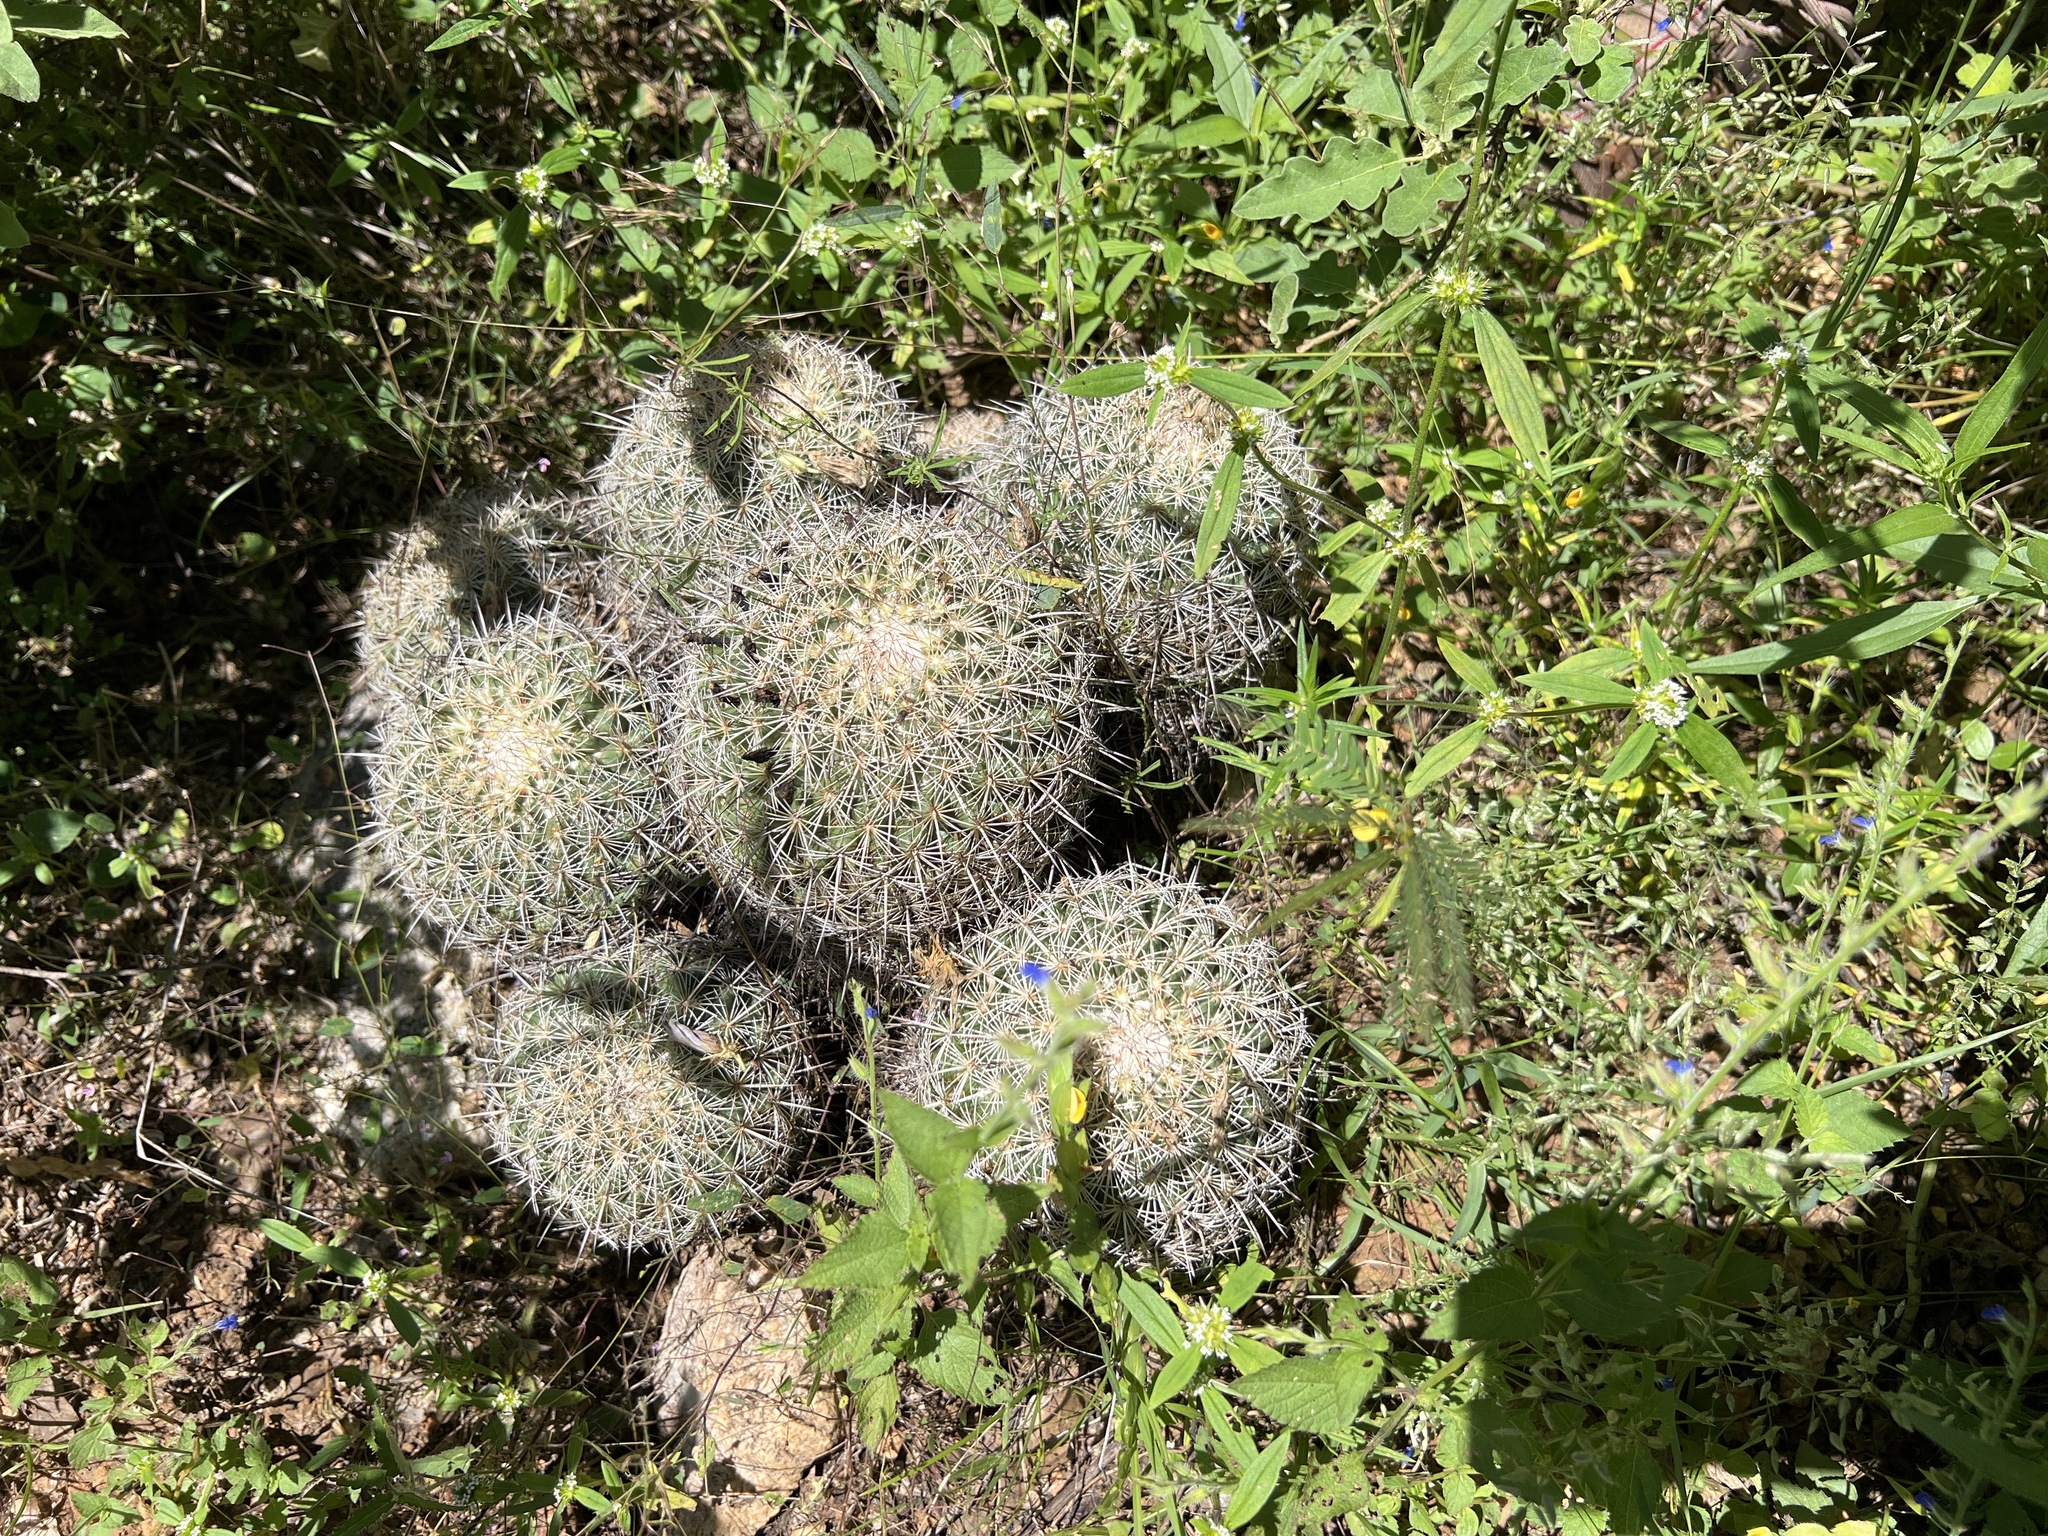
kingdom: Plantae
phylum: Tracheophyta
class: Magnoliopsida
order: Caryophyllales
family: Cactaceae
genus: Coryphantha
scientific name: Coryphantha recurvata
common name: Golden chested beehive
